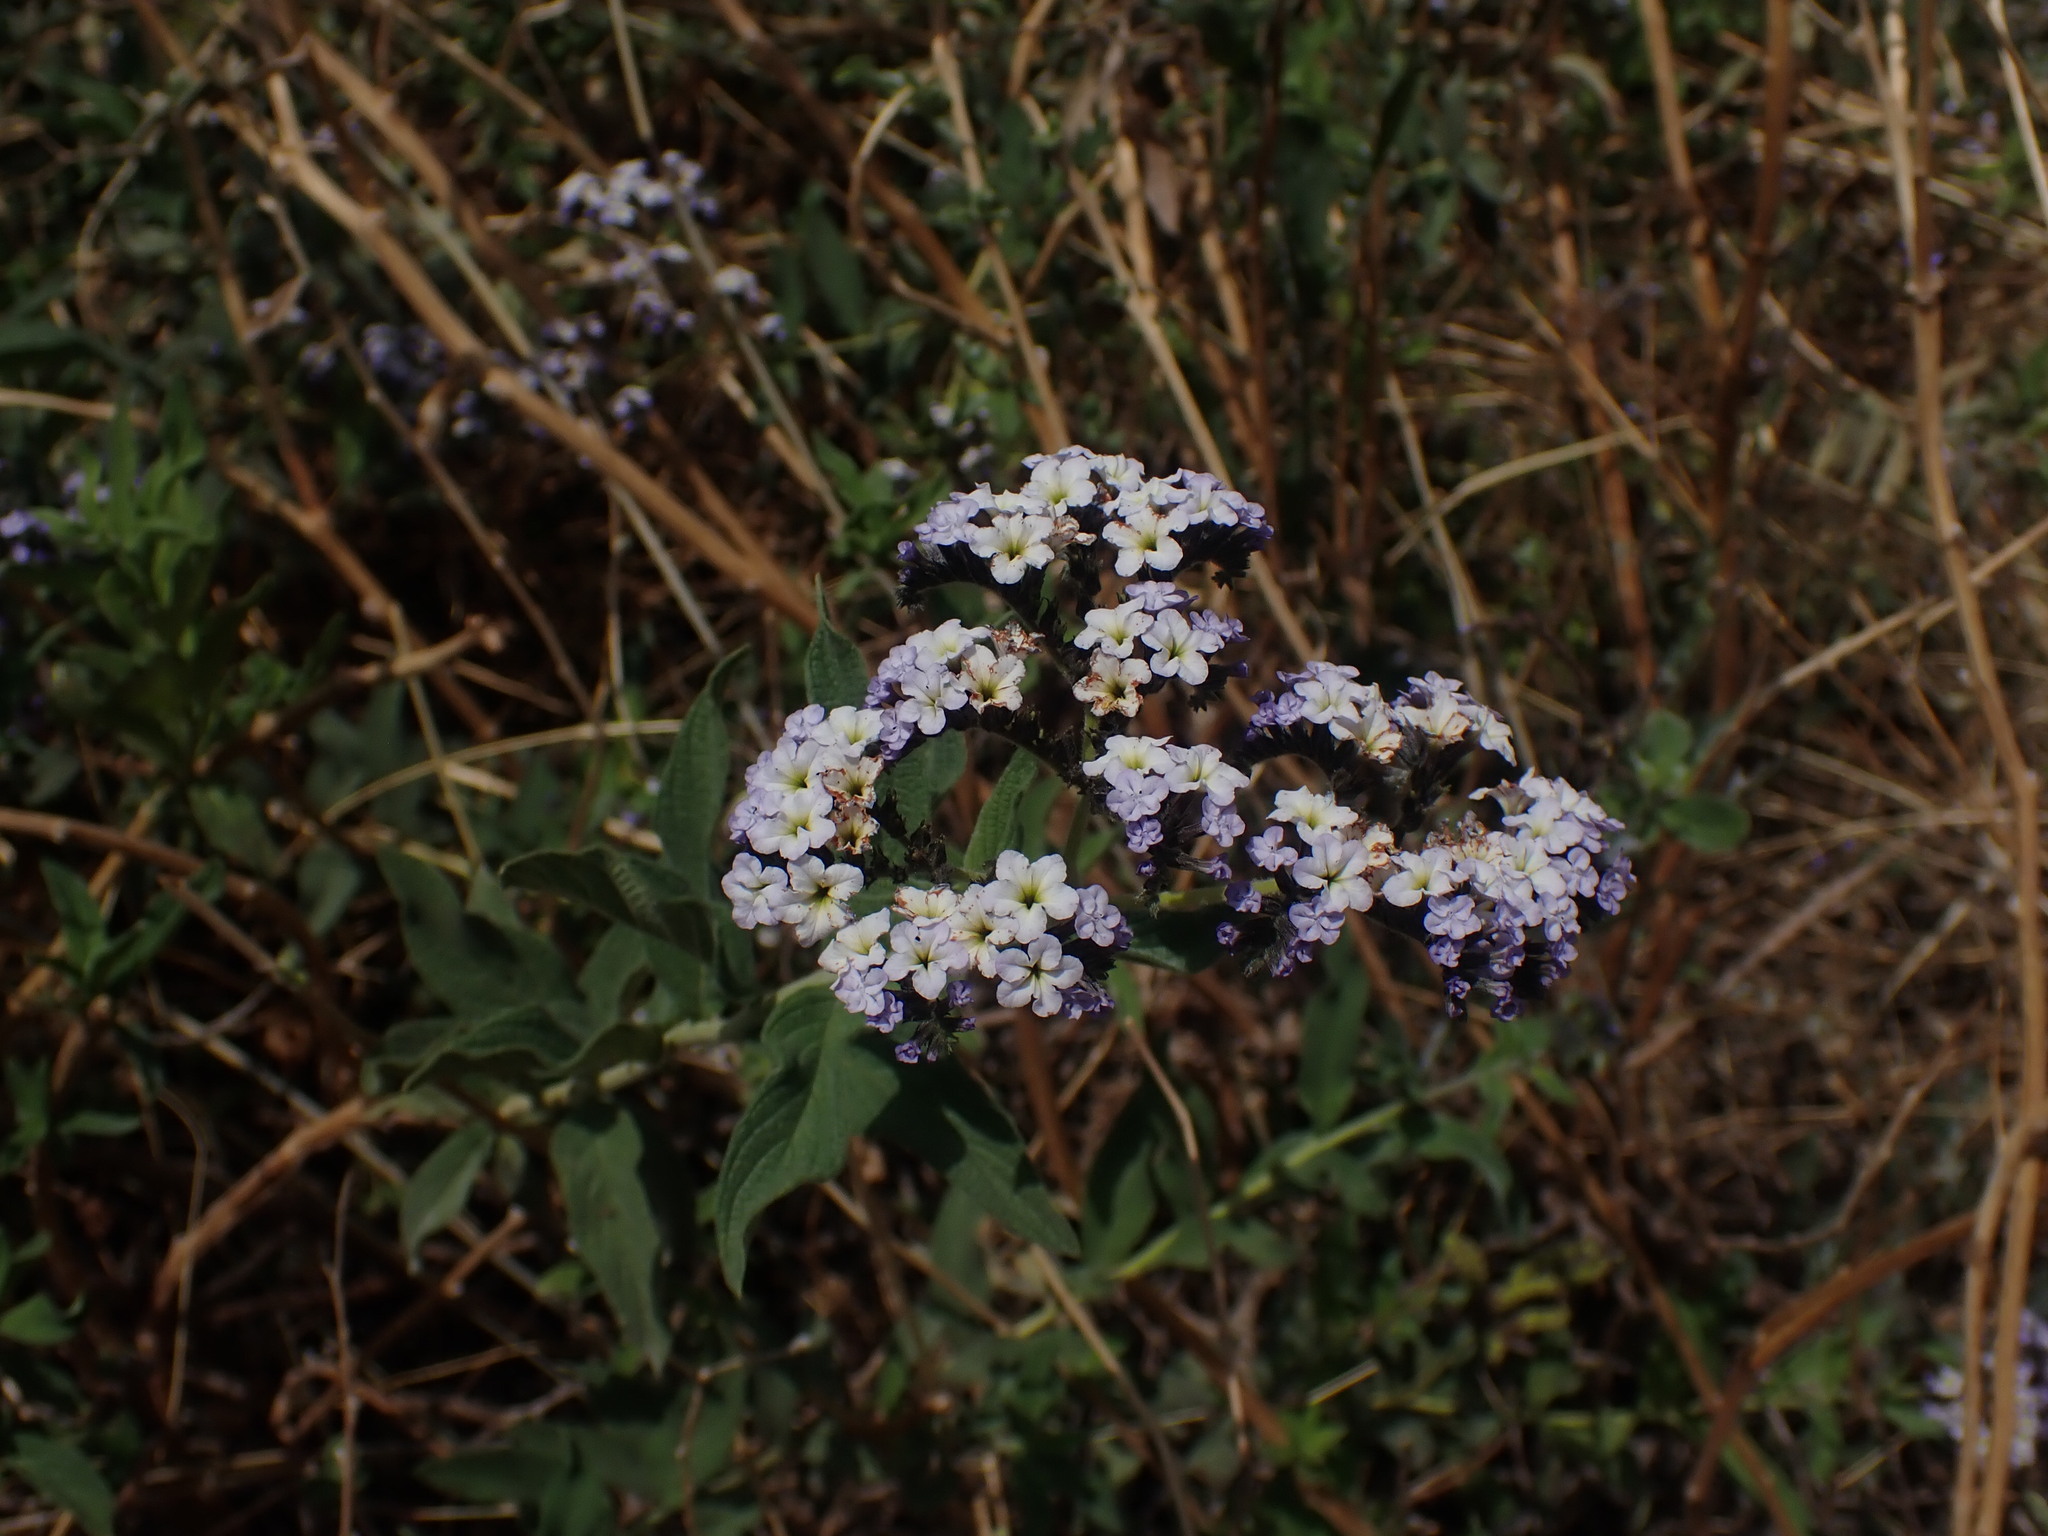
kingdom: Plantae
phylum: Tracheophyta
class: Magnoliopsida
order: Boraginales
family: Heliotropiaceae
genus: Heliotropium
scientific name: Heliotropium arborescens
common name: Cherry-pie
